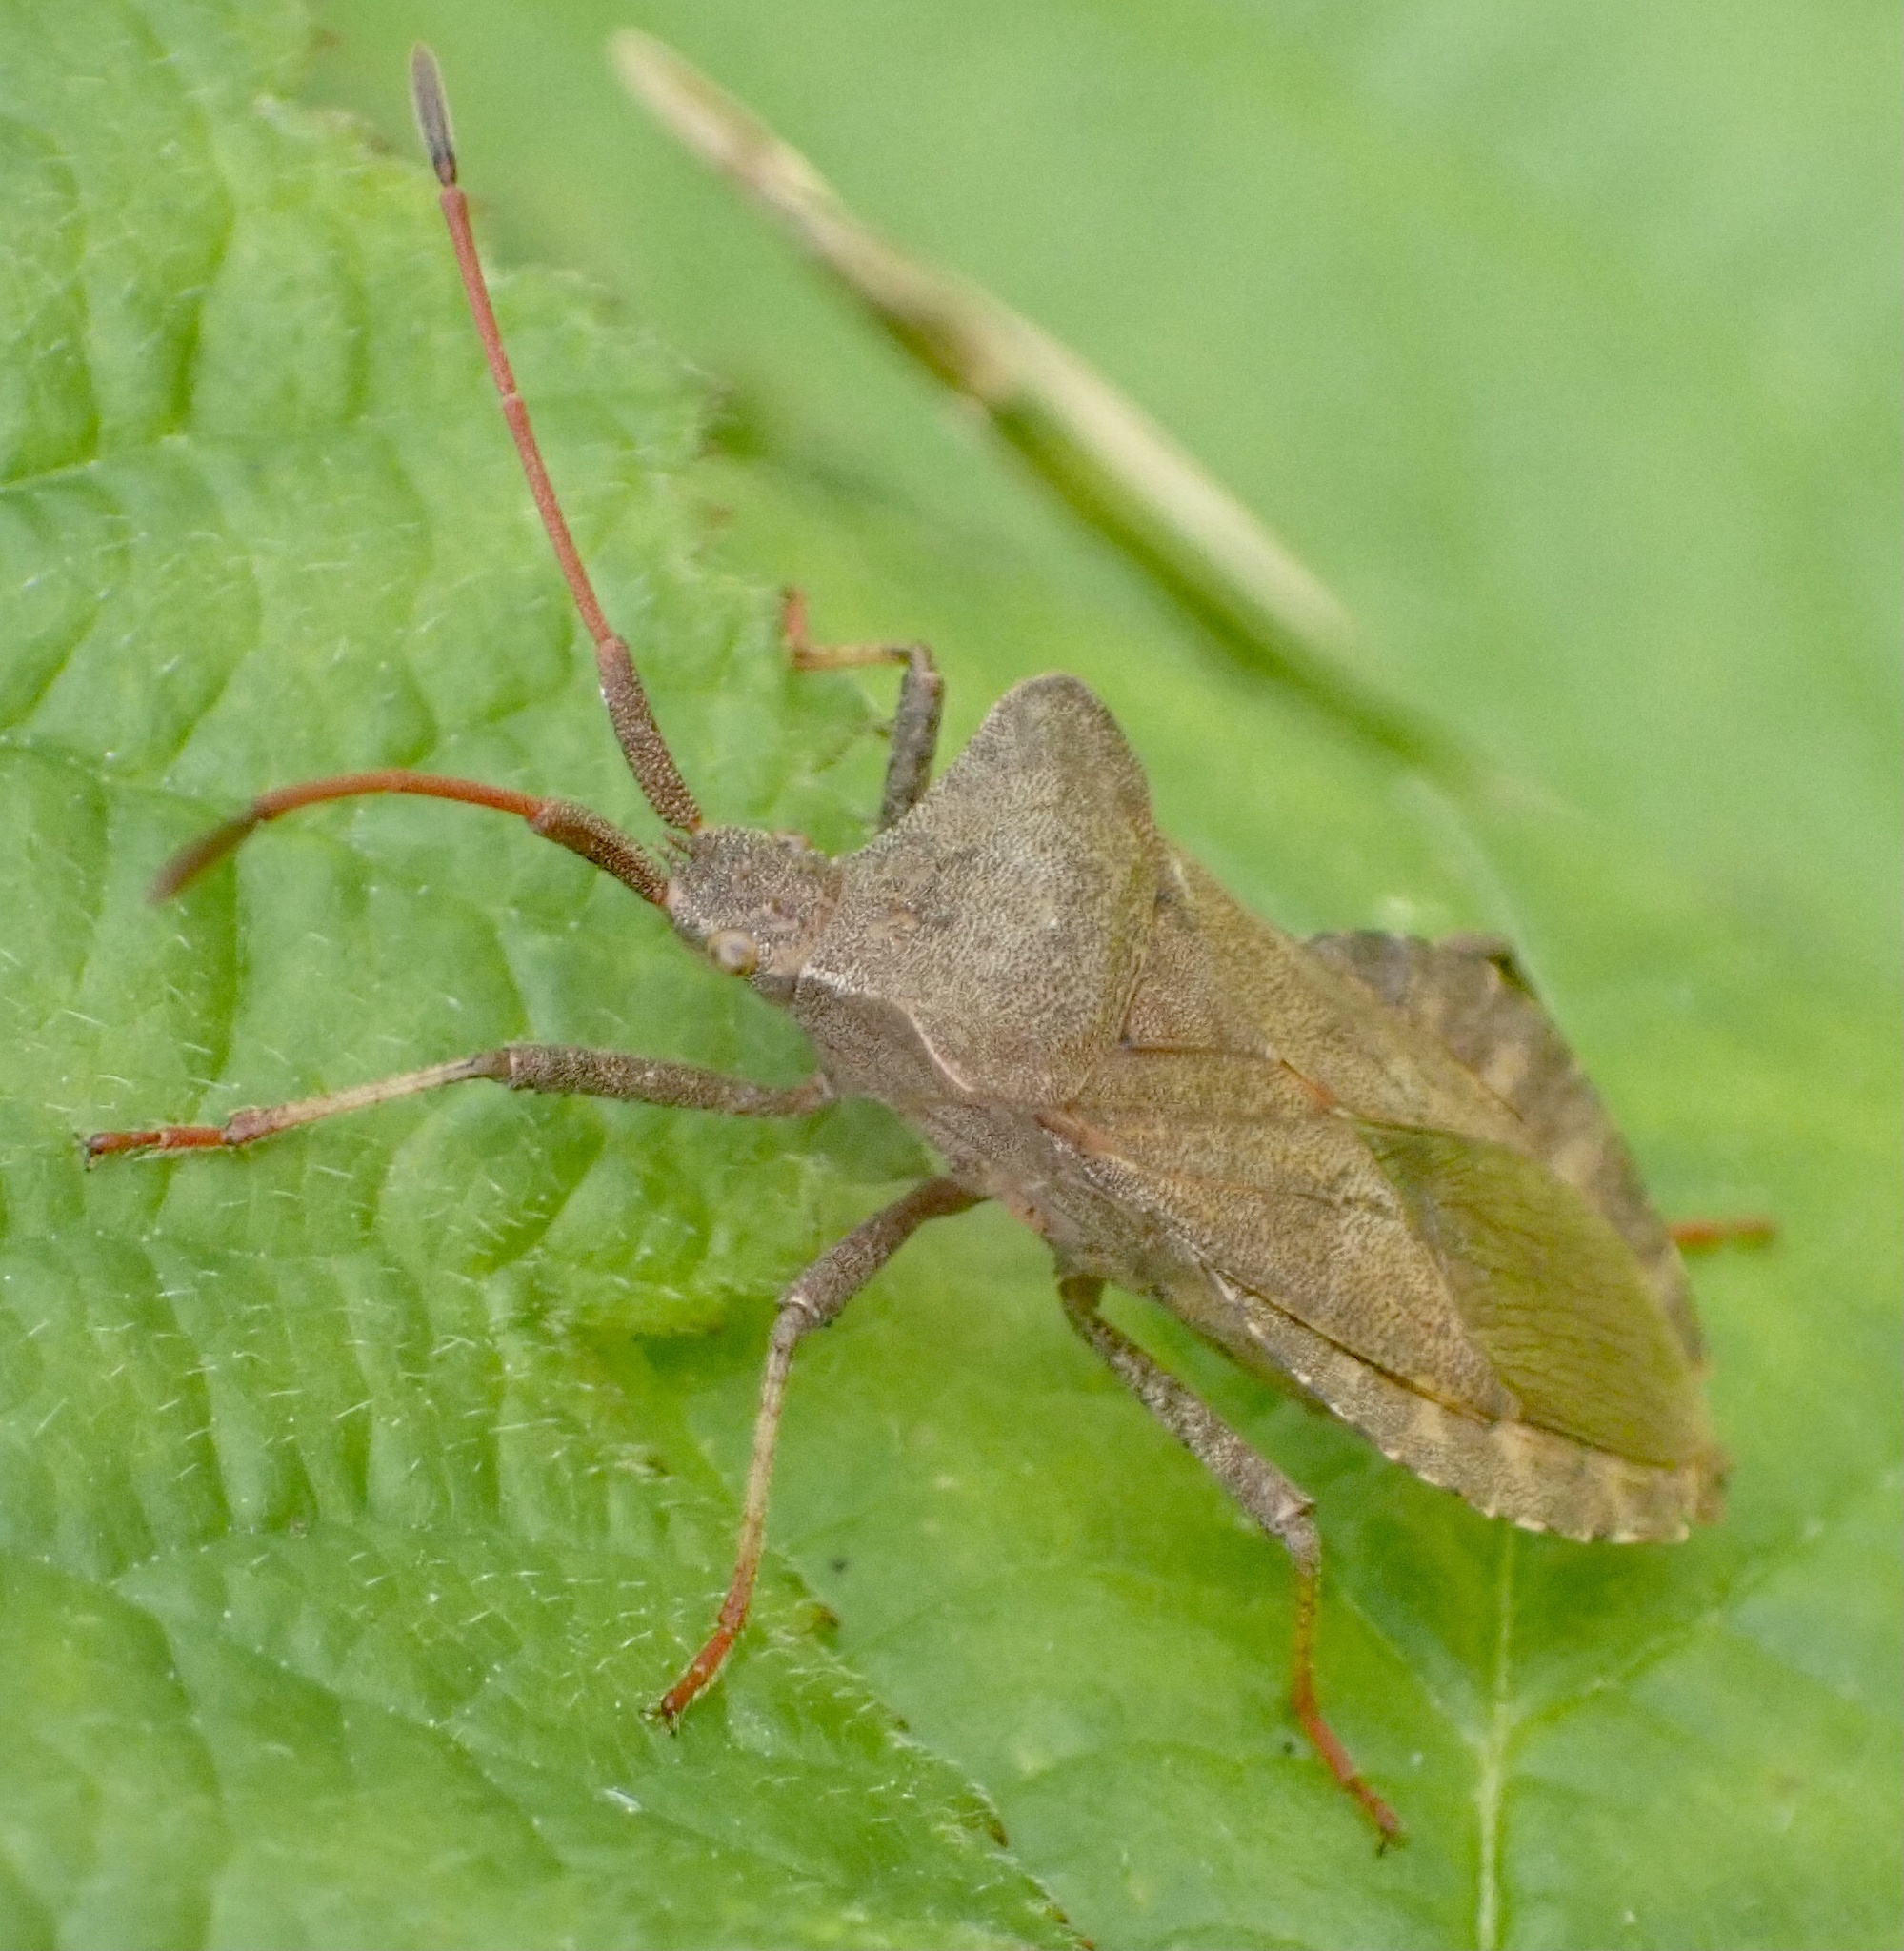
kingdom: Animalia
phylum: Arthropoda
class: Insecta
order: Hemiptera
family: Coreidae
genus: Coreus
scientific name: Coreus marginatus
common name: Dock bug
